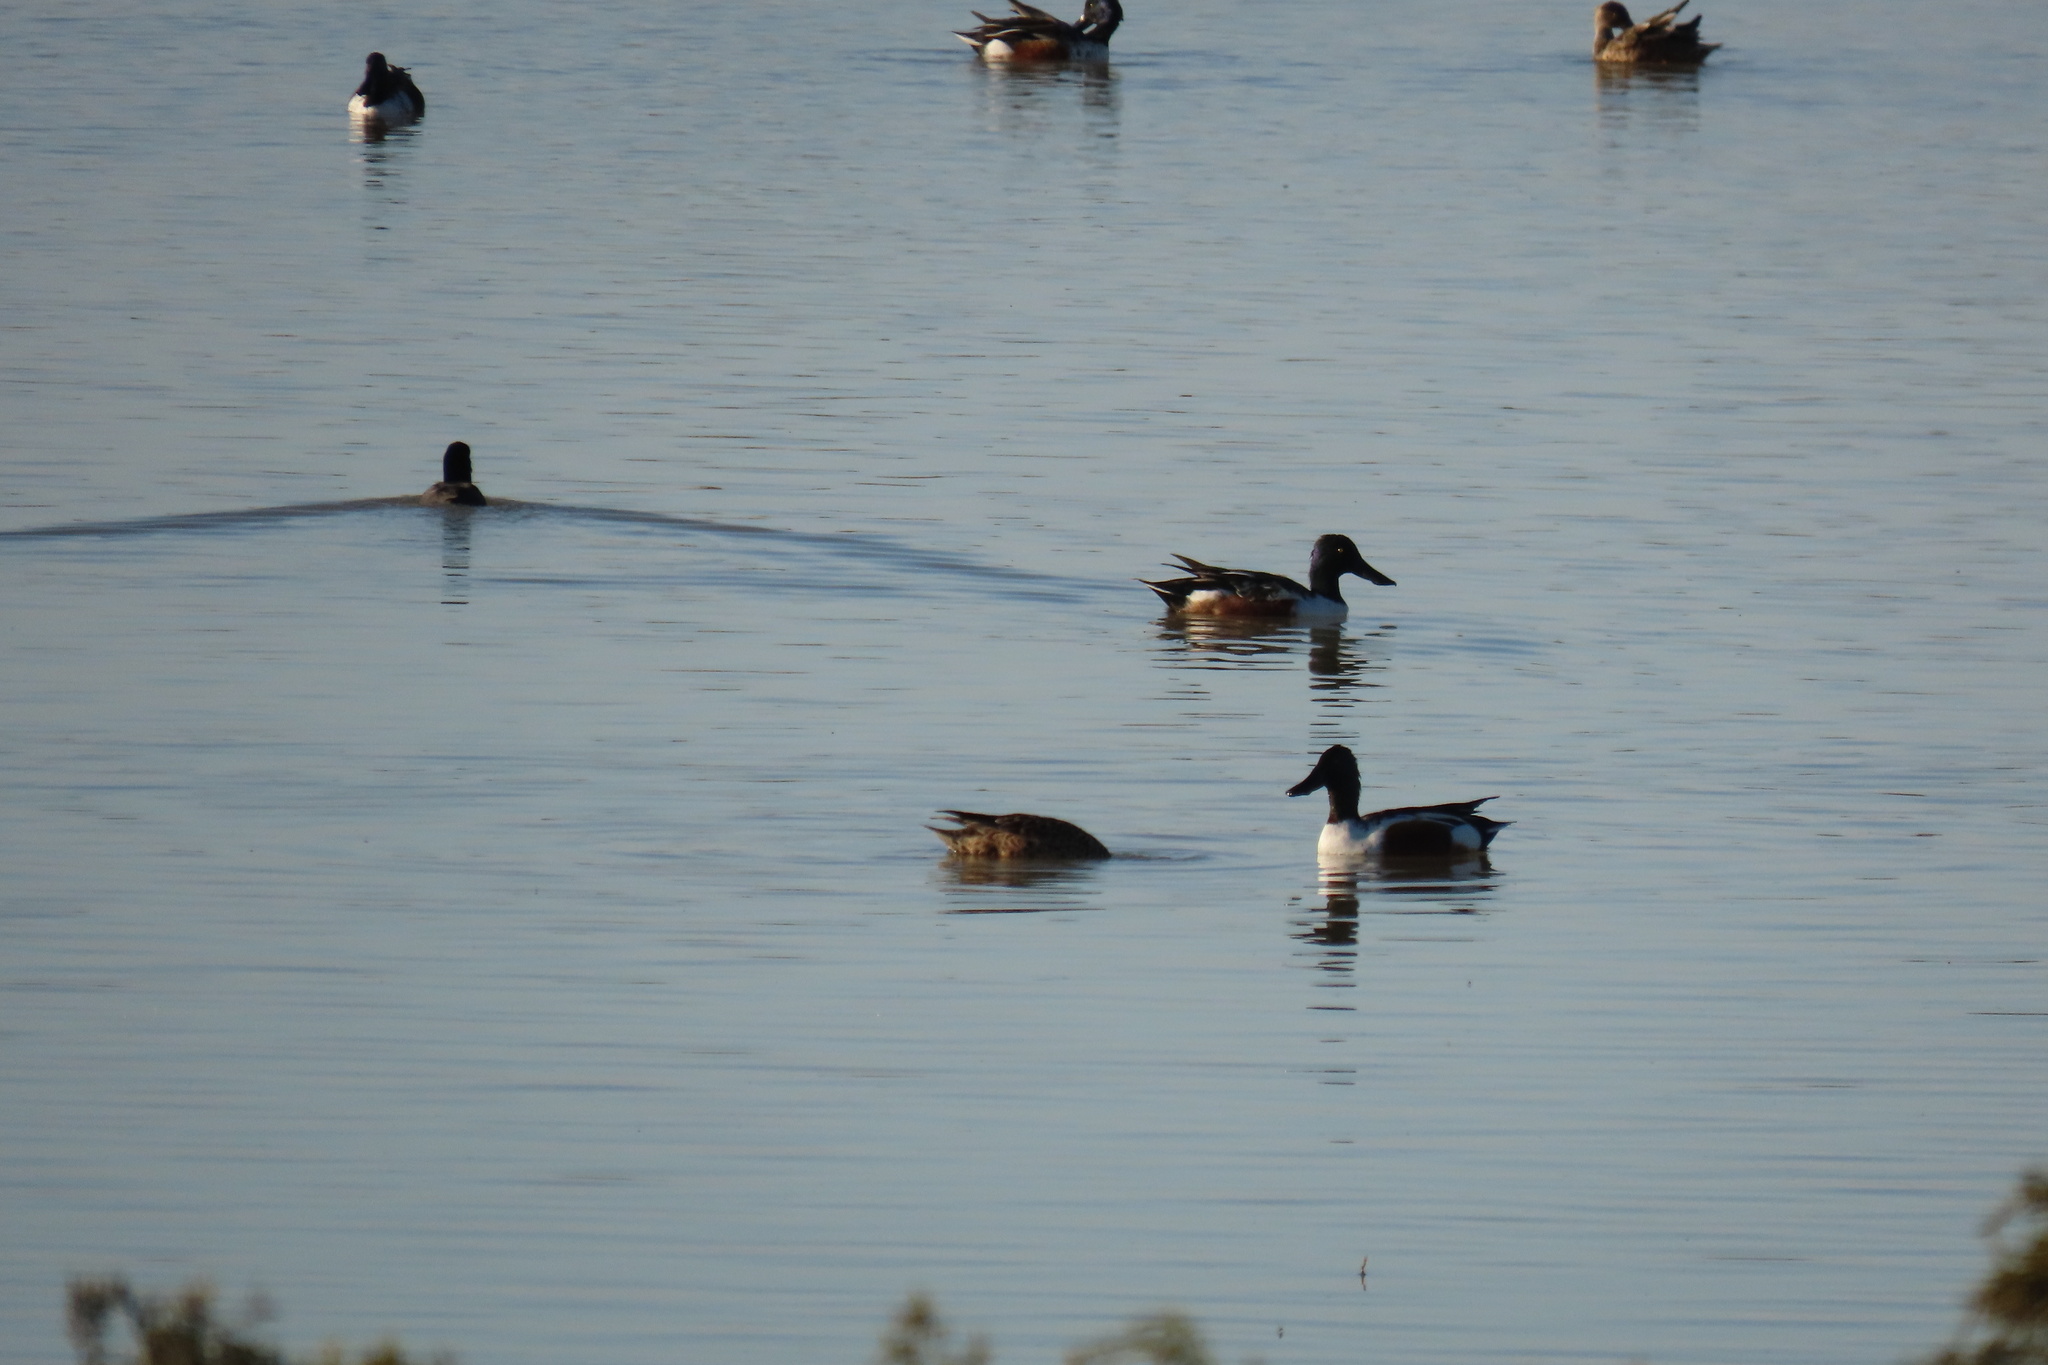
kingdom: Animalia
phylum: Chordata
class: Aves
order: Anseriformes
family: Anatidae
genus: Spatula
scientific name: Spatula clypeata
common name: Northern shoveler
